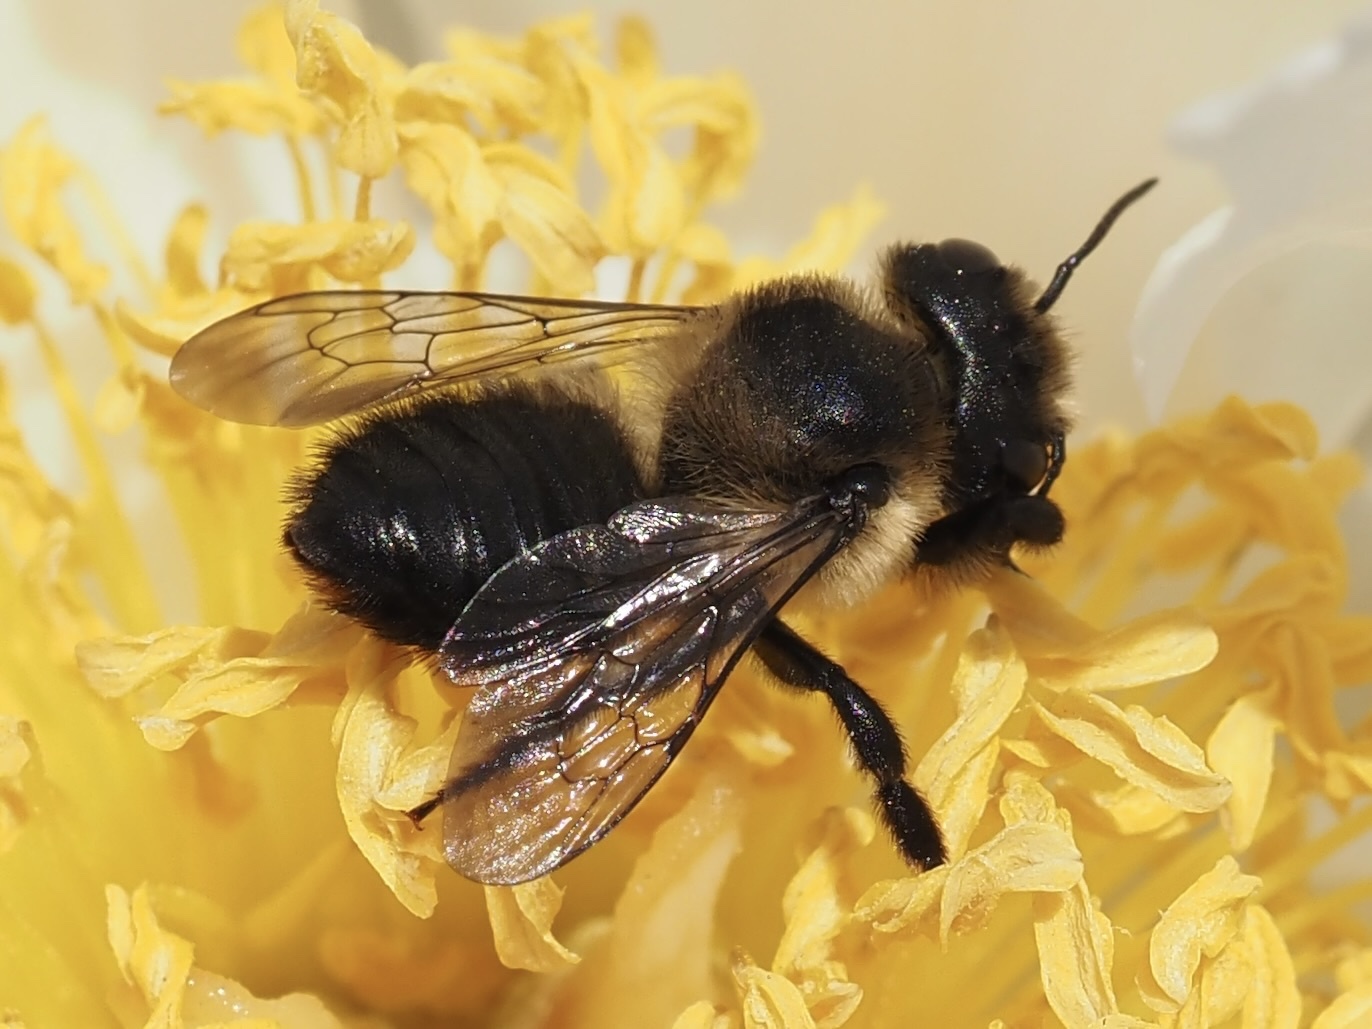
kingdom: Animalia
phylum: Arthropoda
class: Insecta
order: Hymenoptera
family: Megachilidae
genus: Megachile
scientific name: Megachile melanophaea
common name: Black-and-gray leafcutter bee
